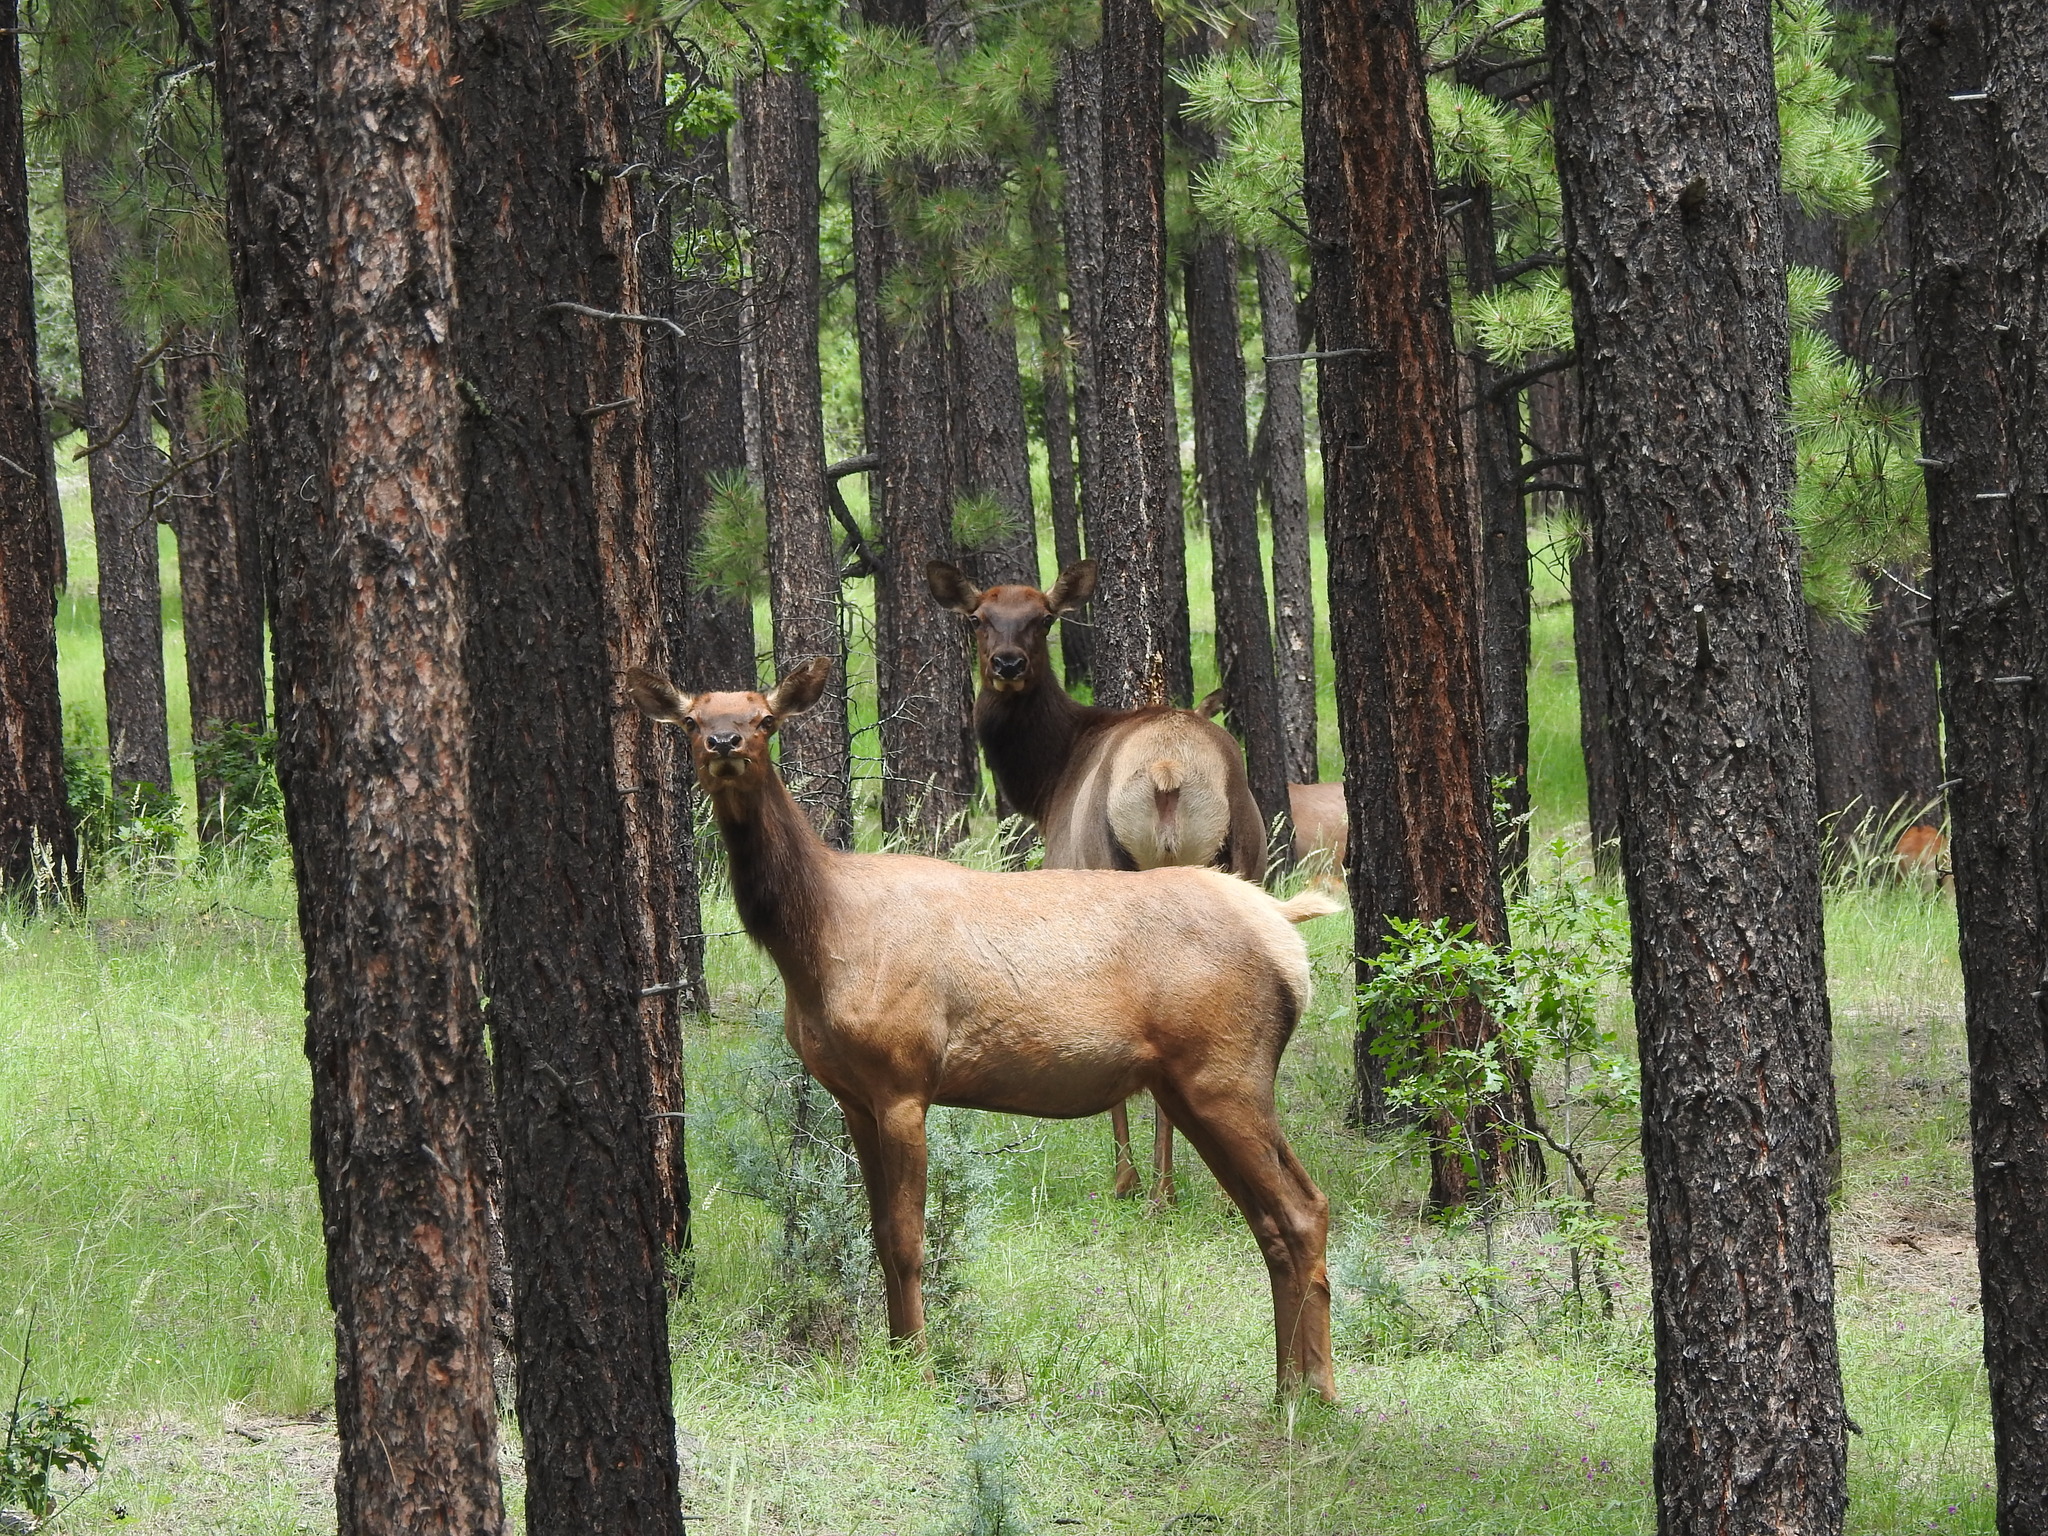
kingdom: Animalia
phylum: Chordata
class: Mammalia
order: Artiodactyla
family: Cervidae
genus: Cervus
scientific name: Cervus elaphus
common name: Red deer
